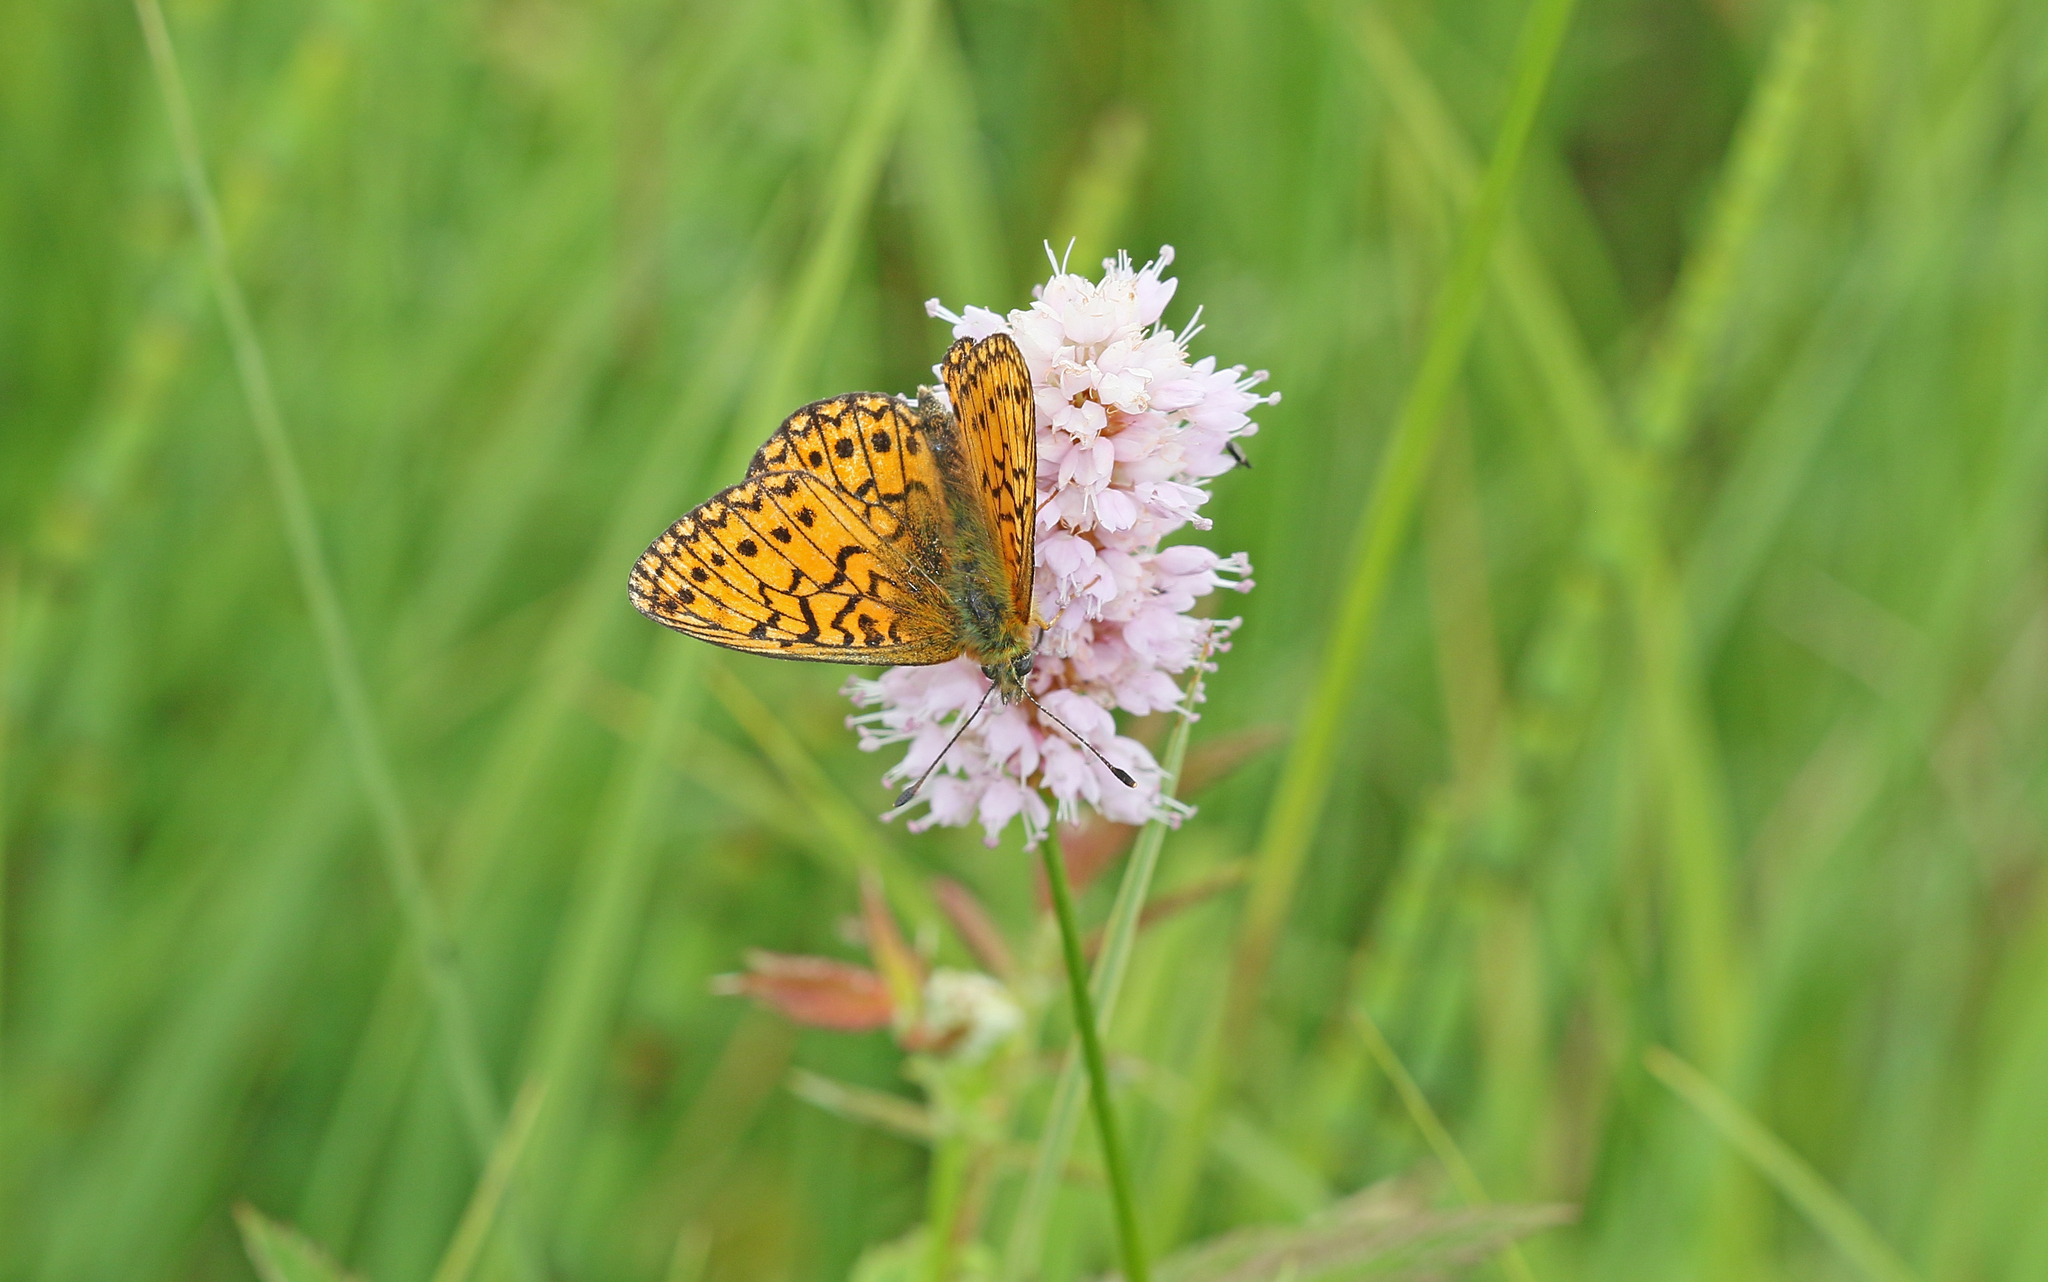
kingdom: Animalia
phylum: Arthropoda
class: Insecta
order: Lepidoptera
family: Nymphalidae
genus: Boloria
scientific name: Boloria eunomia
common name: Bog fritillary
